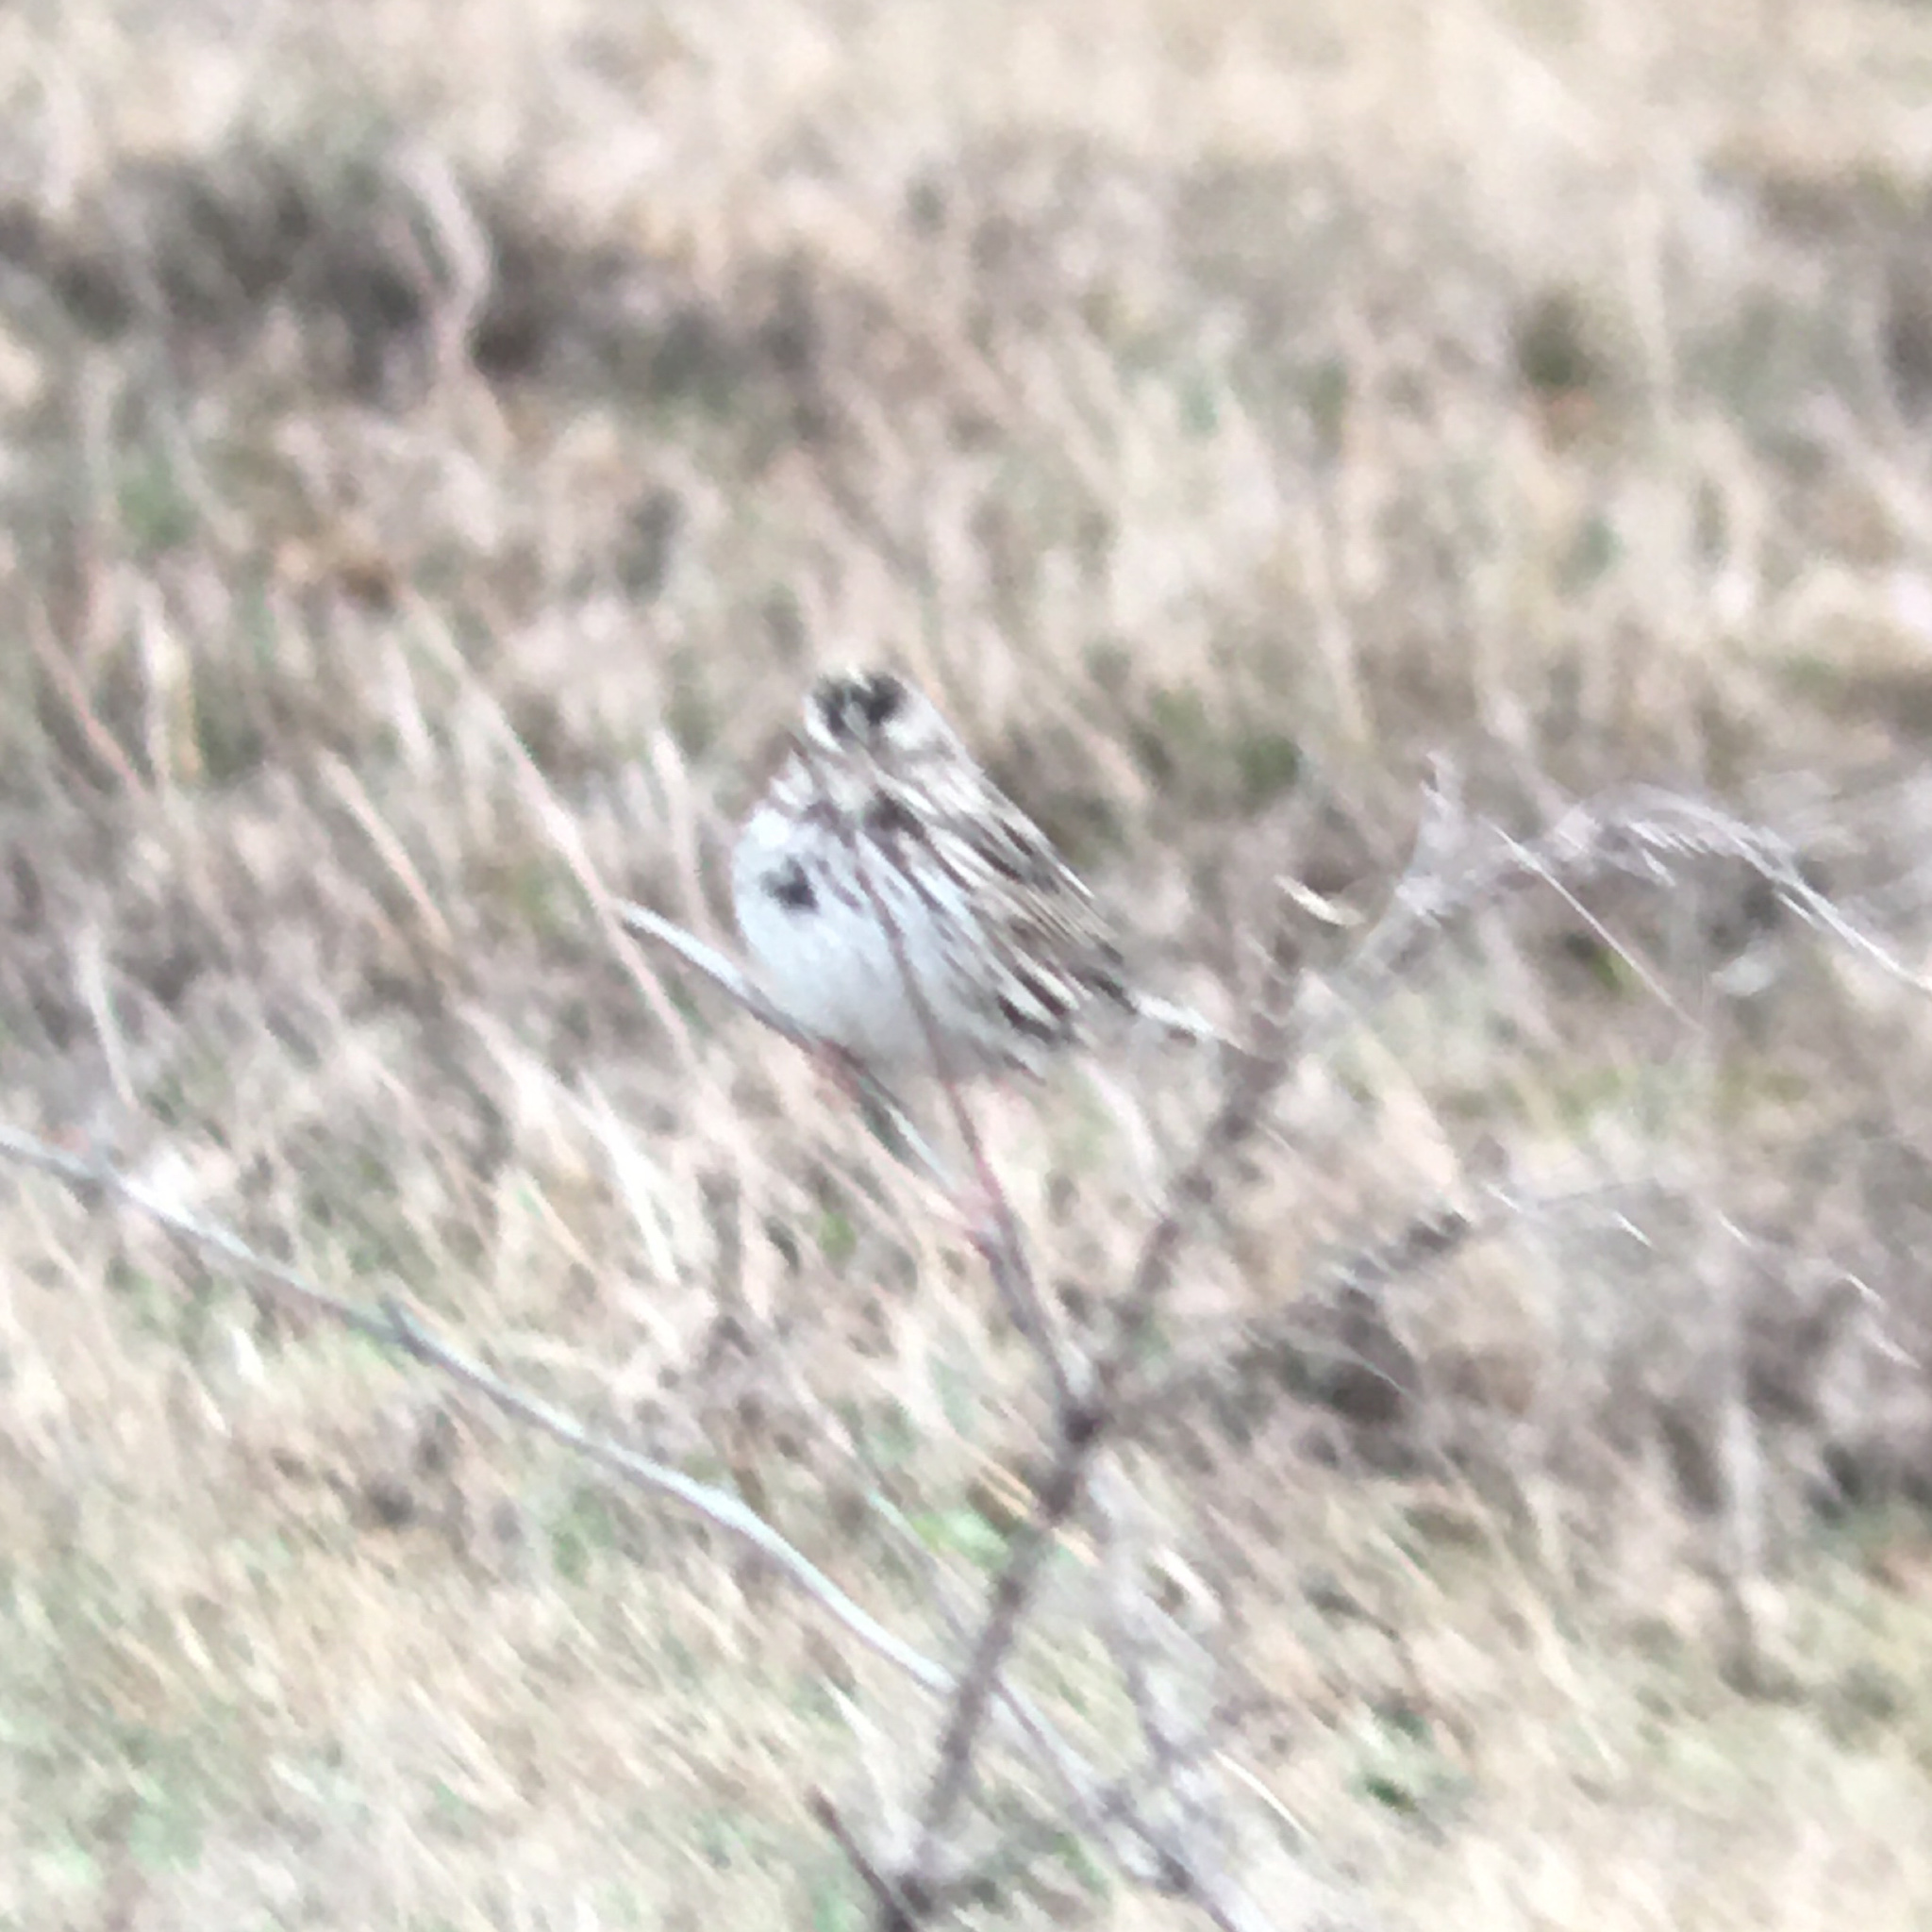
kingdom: Animalia
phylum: Chordata
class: Aves
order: Passeriformes
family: Passerellidae
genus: Passerculus
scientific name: Passerculus sandwichensis
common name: Savannah sparrow
